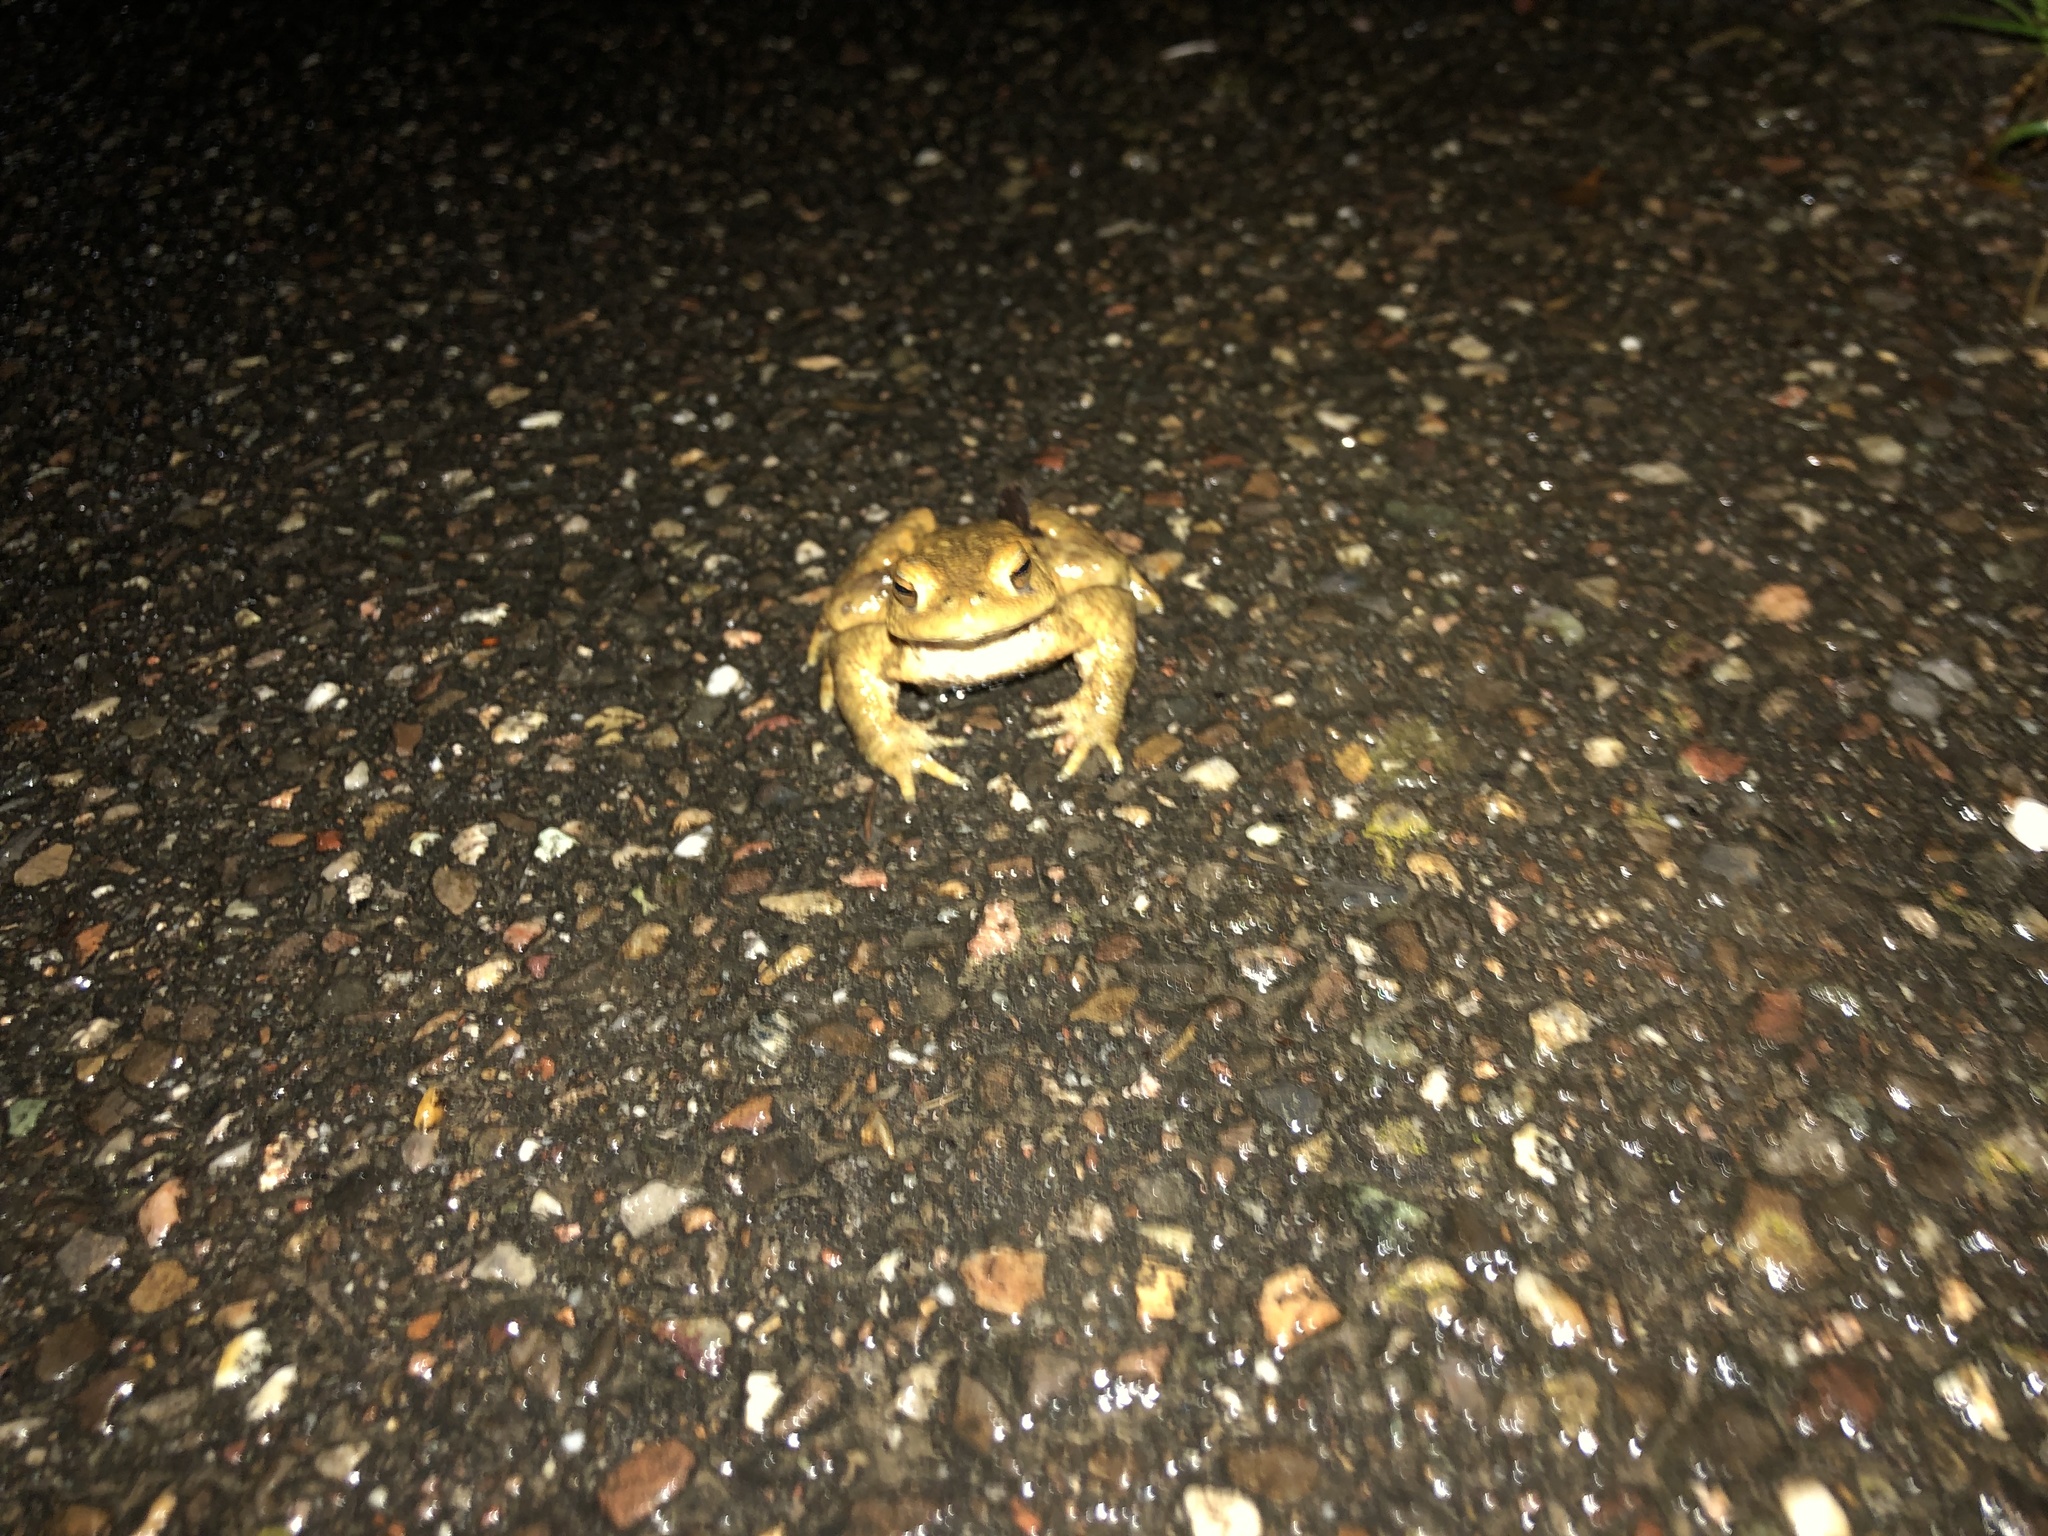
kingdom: Animalia
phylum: Chordata
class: Amphibia
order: Anura
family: Bufonidae
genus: Bufo
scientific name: Bufo bufo
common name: Common toad
